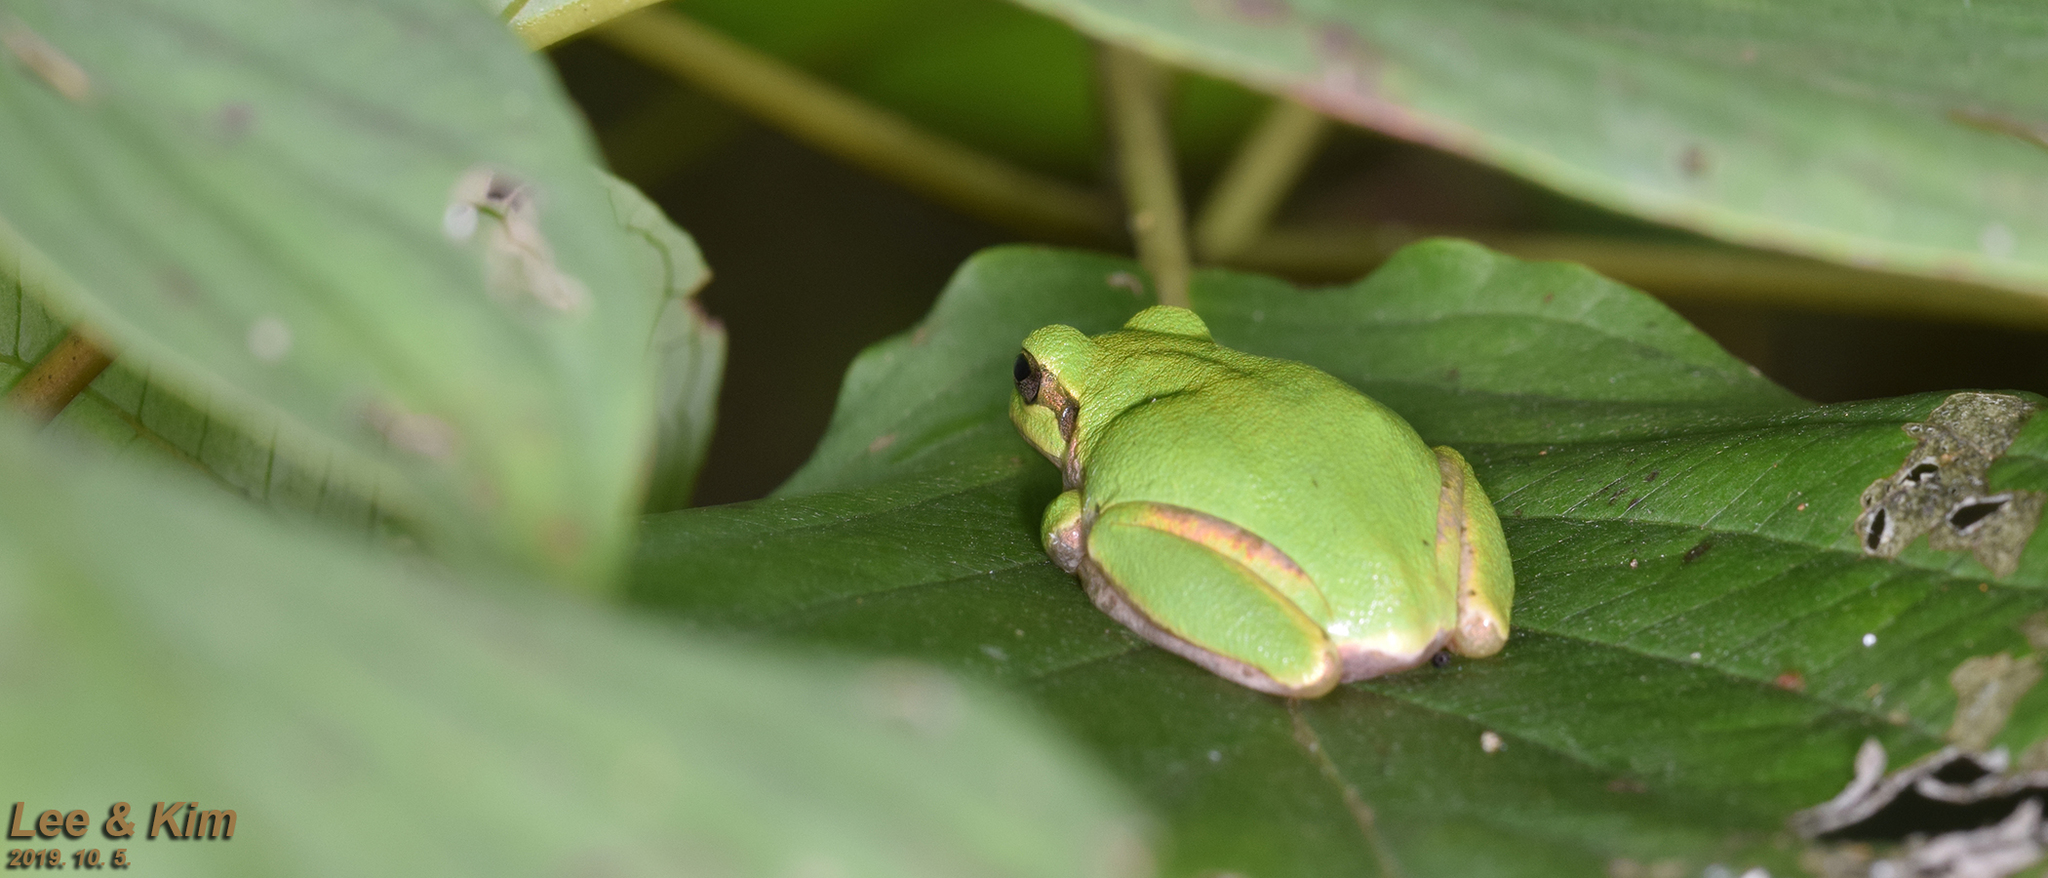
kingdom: Animalia
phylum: Chordata
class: Amphibia
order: Anura
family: Hylidae
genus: Dryophytes
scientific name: Dryophytes japonicus
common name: Japanese treefrog
